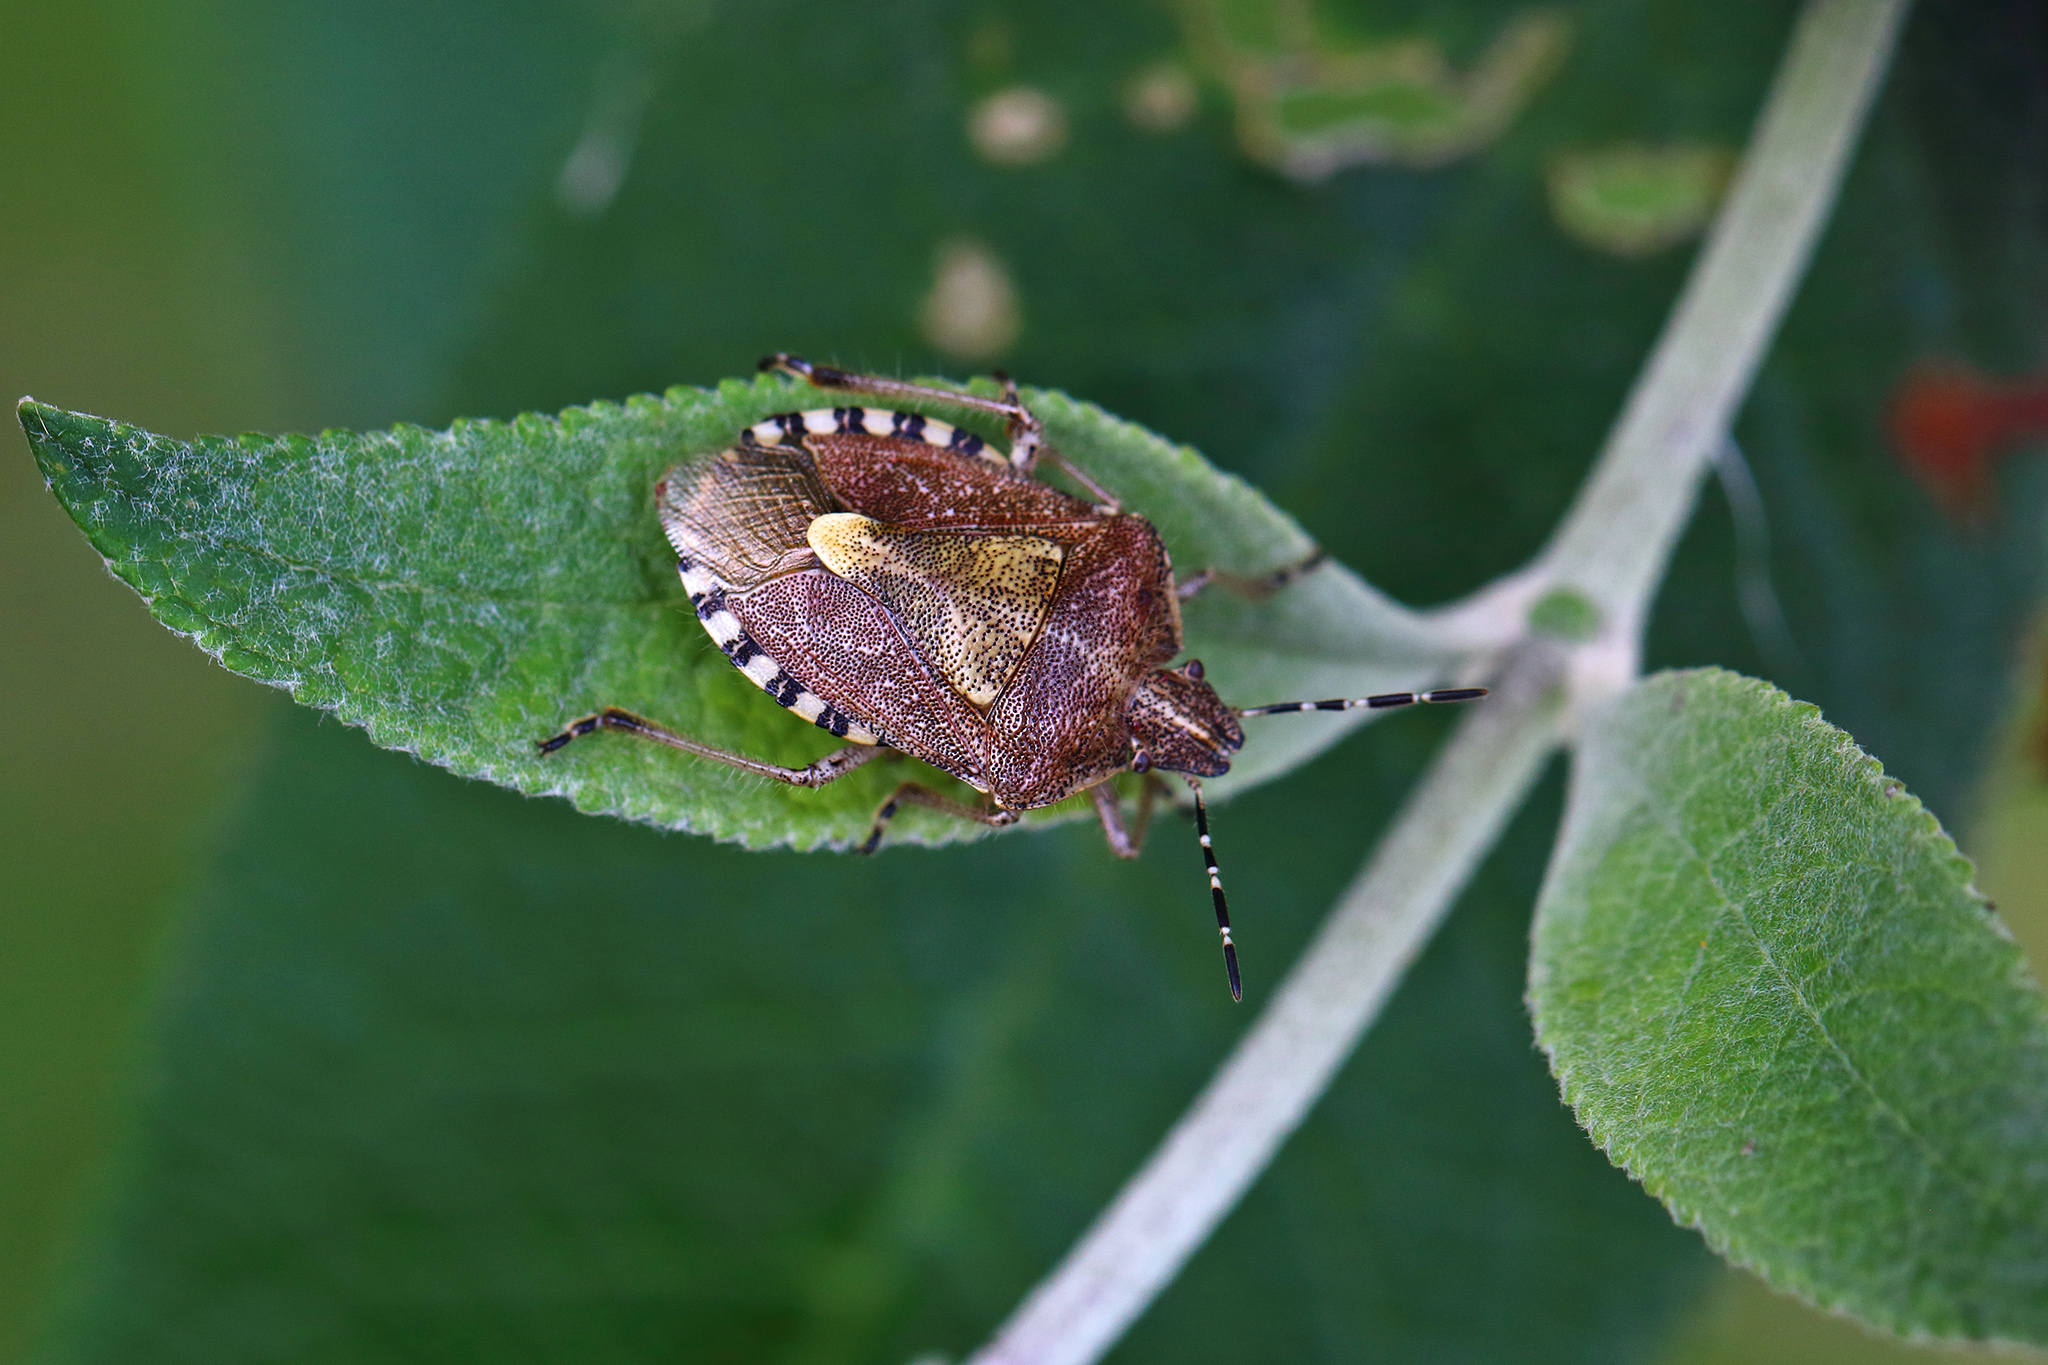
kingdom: Animalia
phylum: Arthropoda
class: Insecta
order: Hemiptera
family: Pentatomidae
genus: Dolycoris
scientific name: Dolycoris baccarum
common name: Sloe bug
